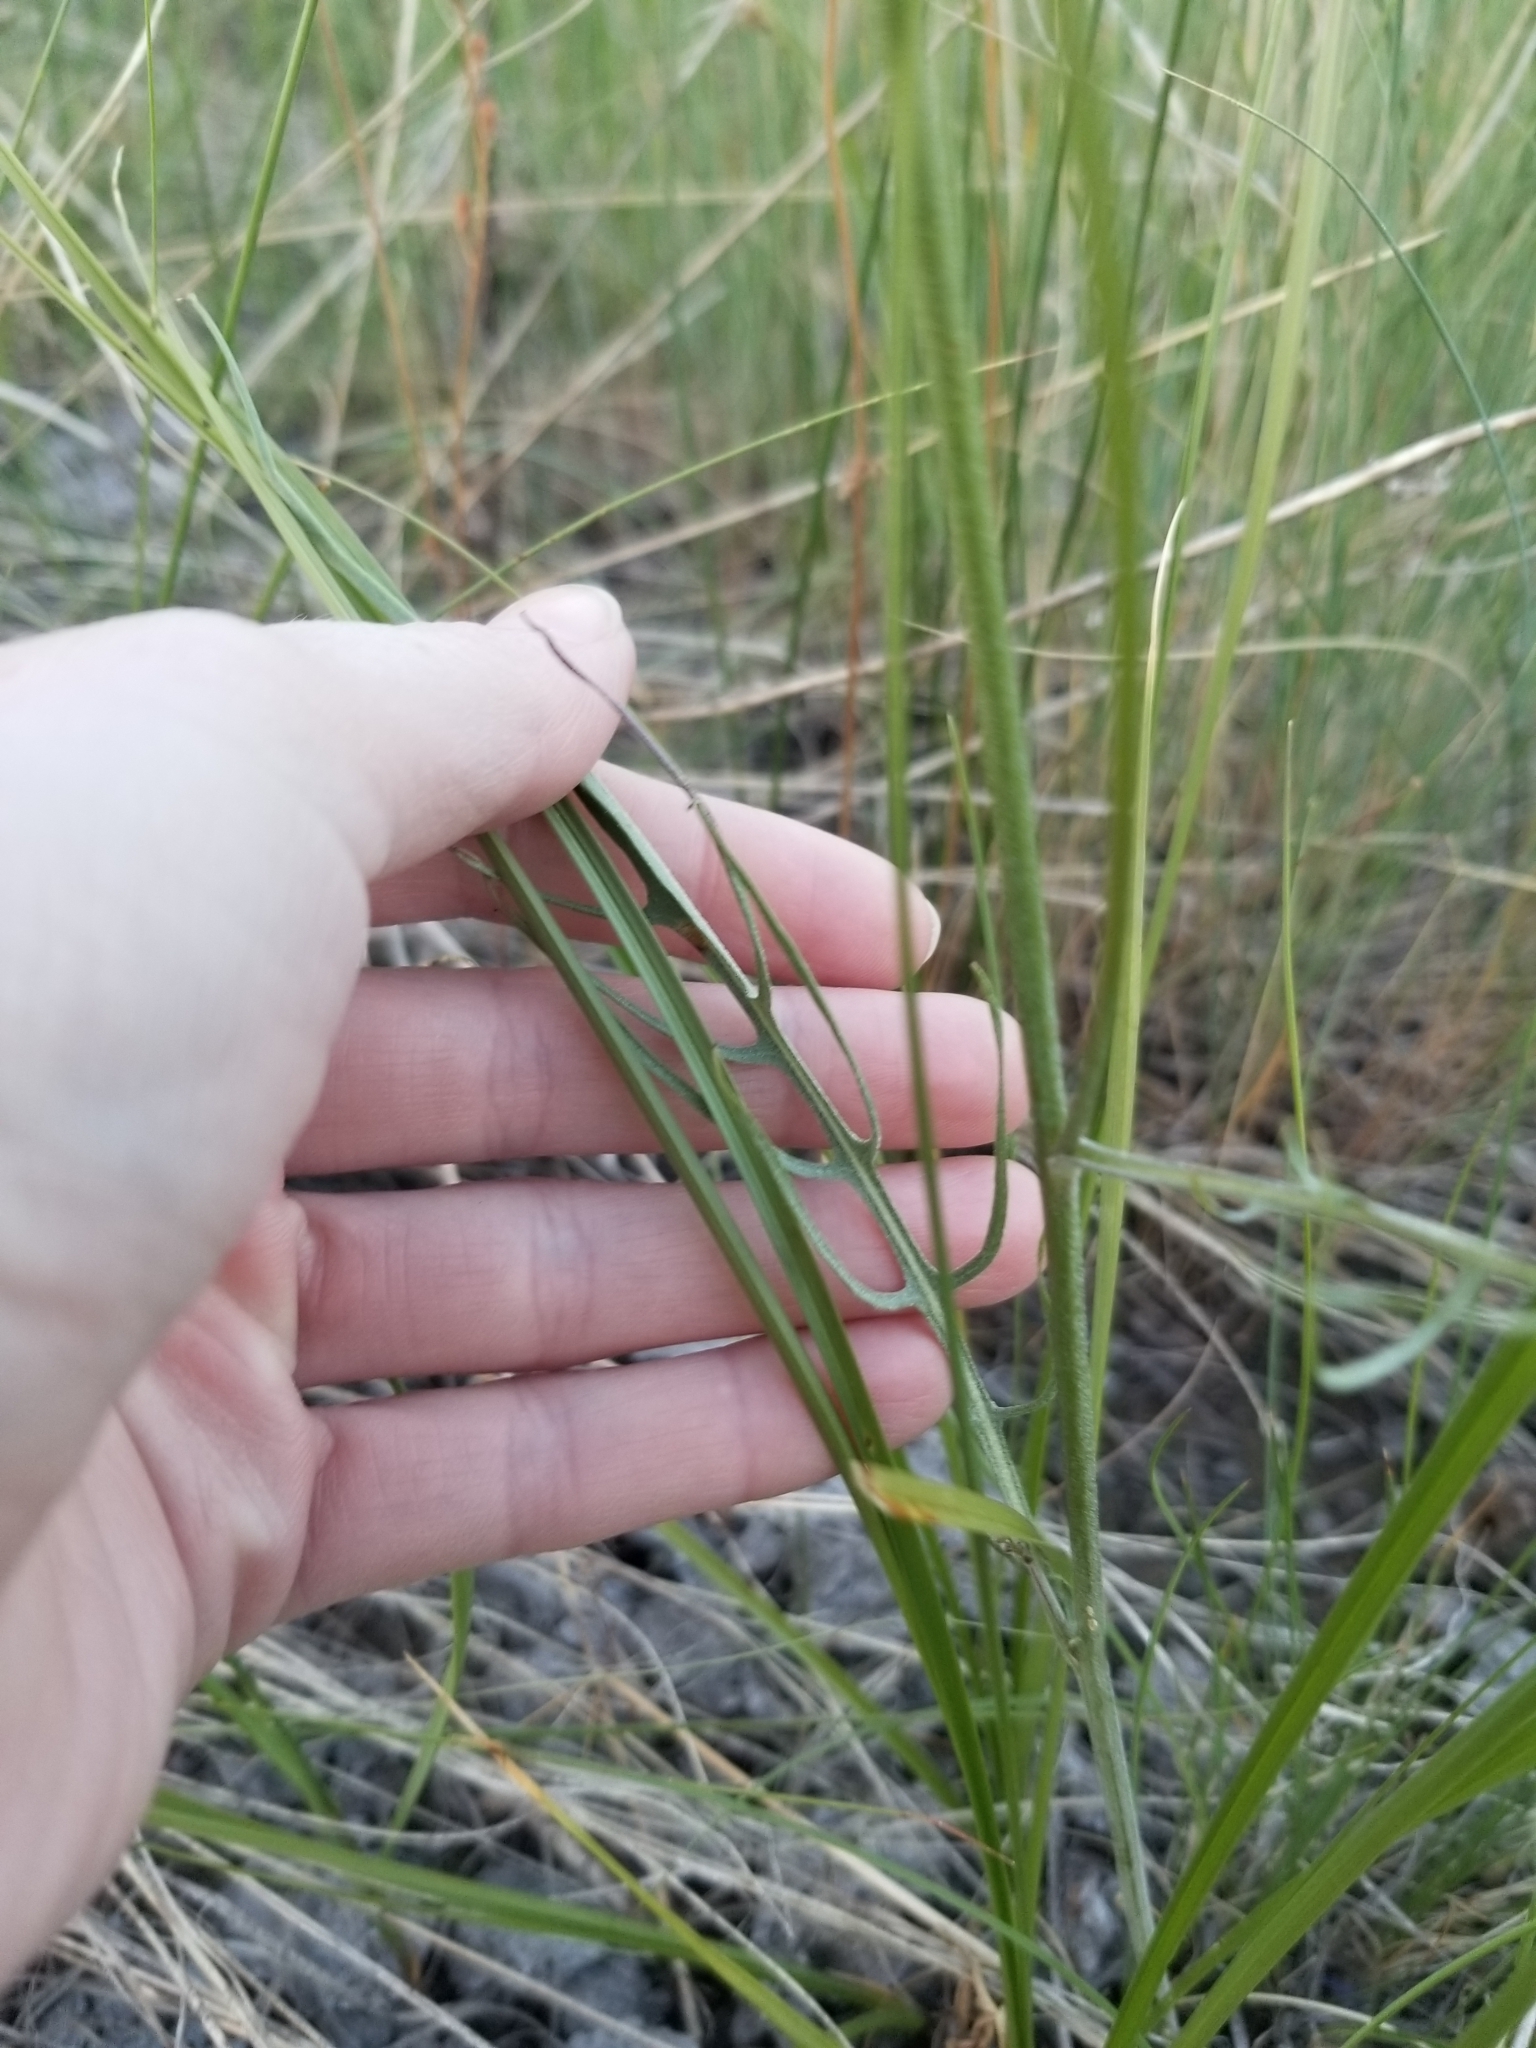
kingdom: Plantae
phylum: Tracheophyta
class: Magnoliopsida
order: Asterales
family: Asteraceae
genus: Crepis
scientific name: Crepis atribarba
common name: Dark hawk's-beard
